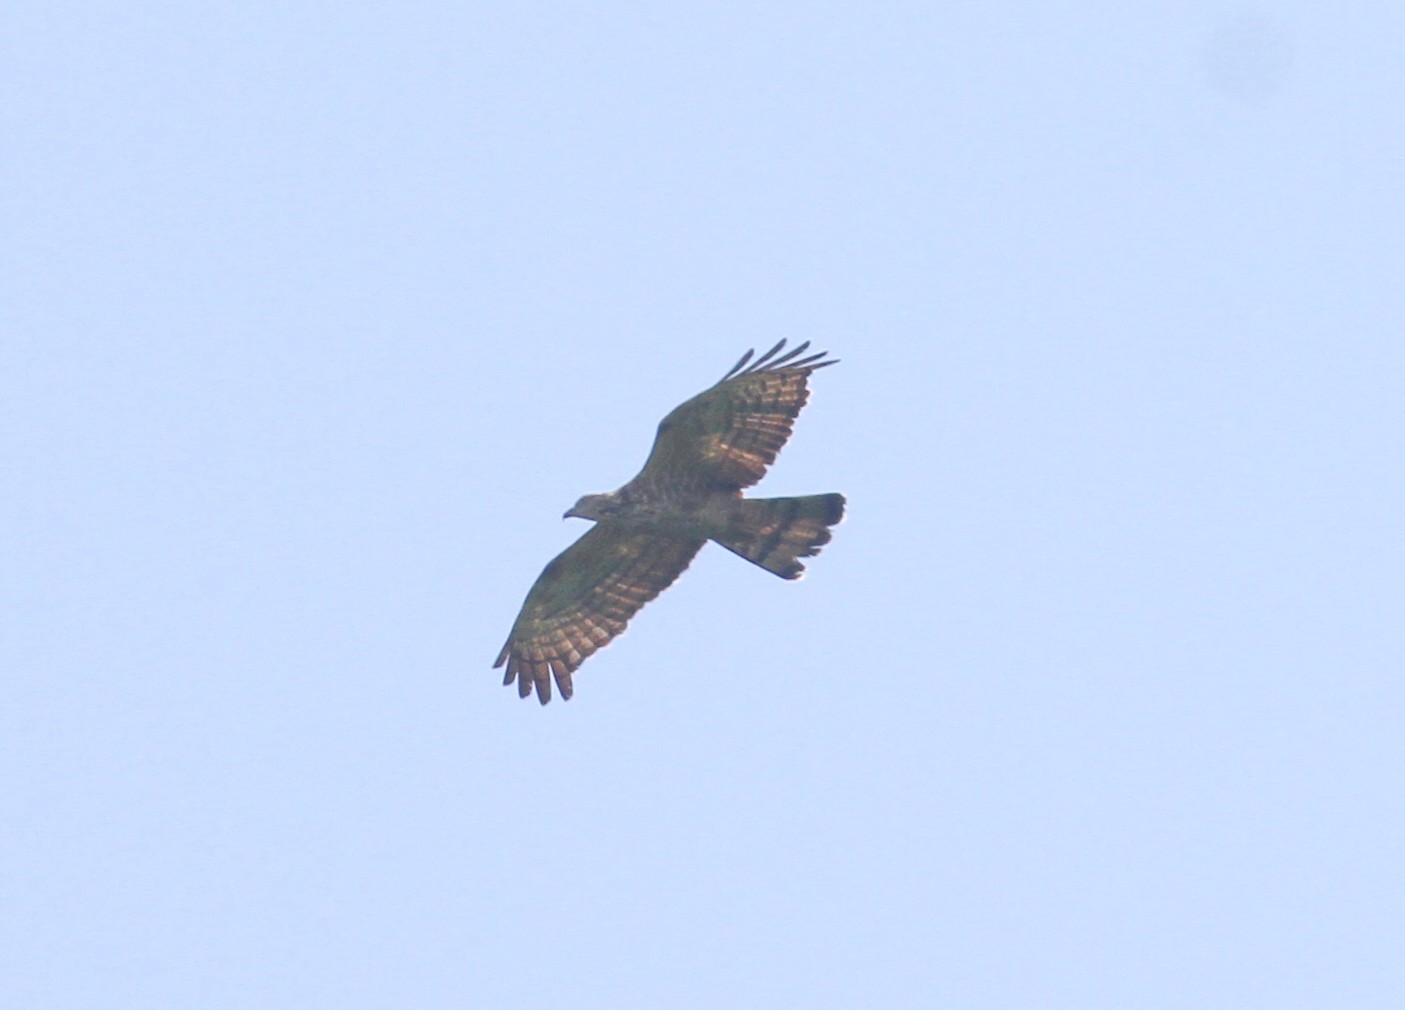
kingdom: Animalia
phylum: Chordata
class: Aves
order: Accipitriformes
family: Accipitridae
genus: Pernis
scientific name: Pernis ptilorhynchus
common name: Crested honey buzzard
